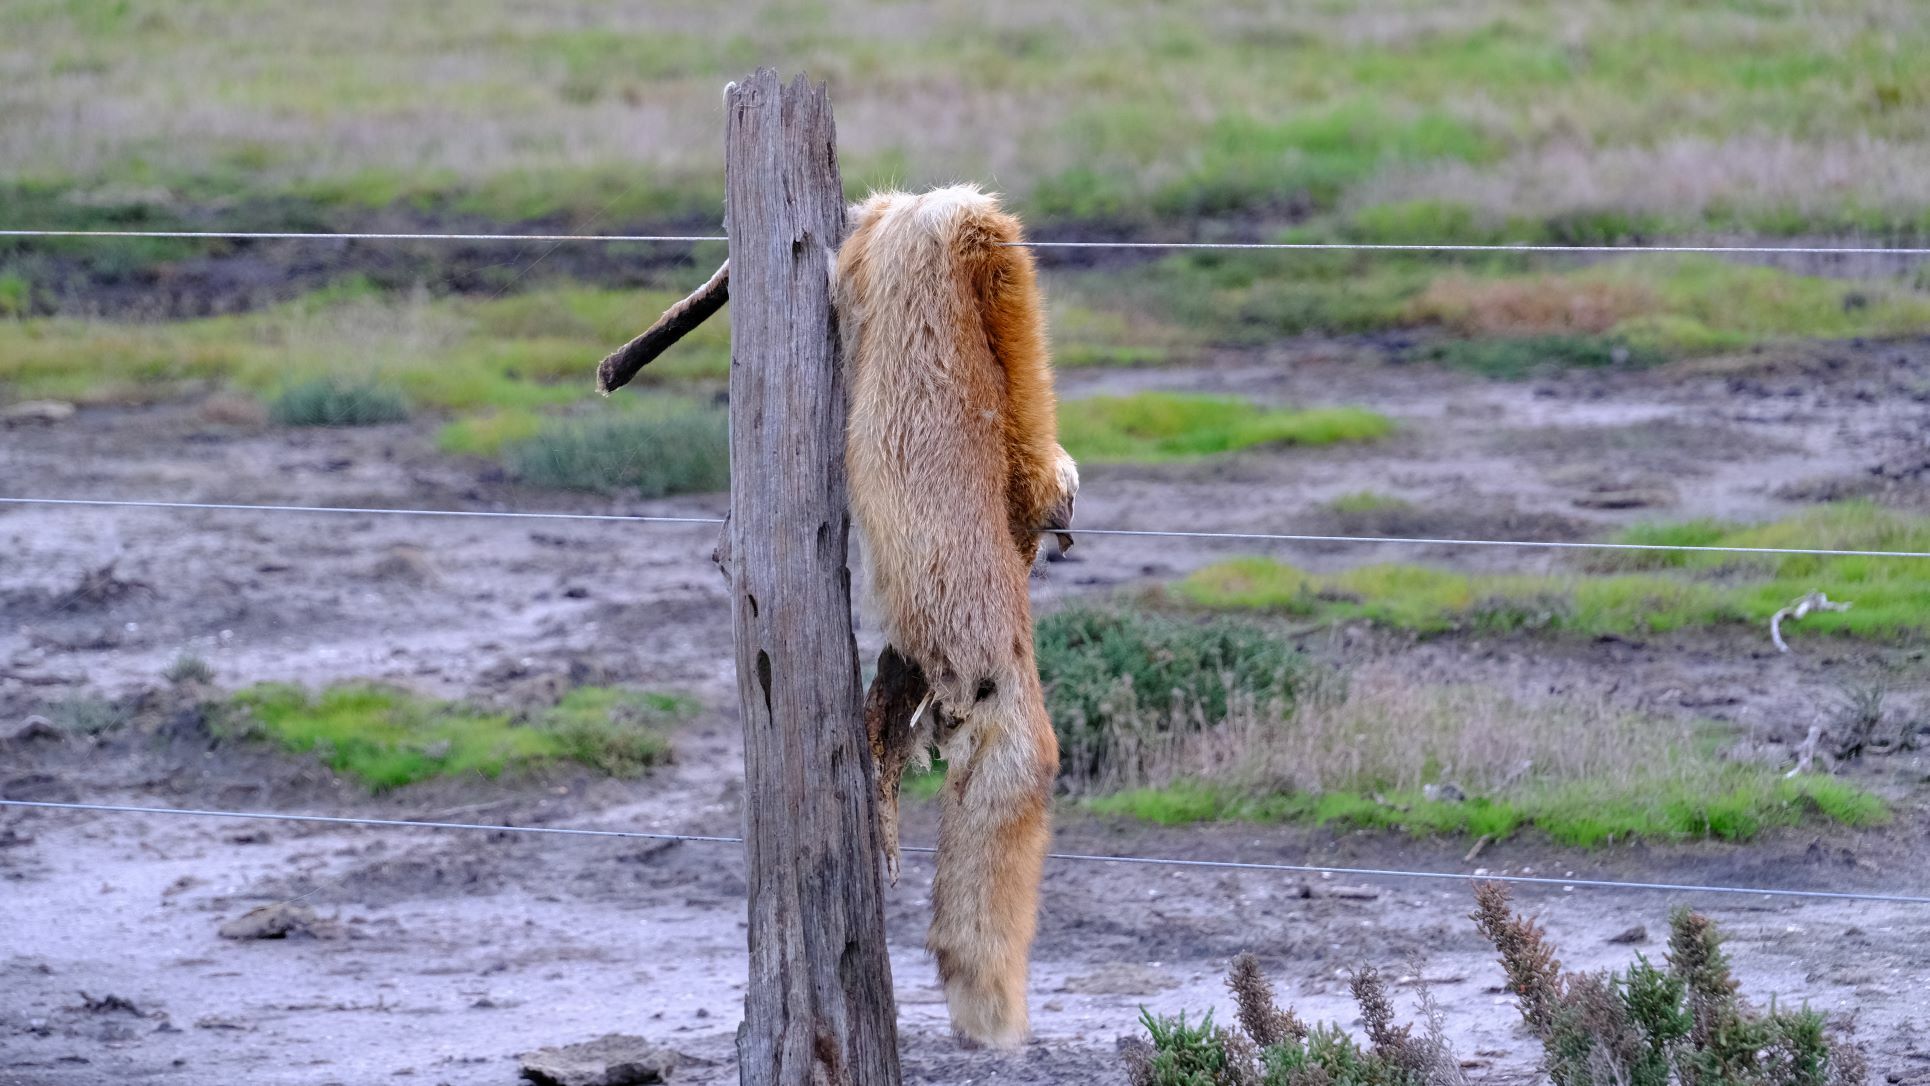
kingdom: Animalia
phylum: Chordata
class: Mammalia
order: Carnivora
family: Canidae
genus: Vulpes
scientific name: Vulpes vulpes
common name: Red fox
